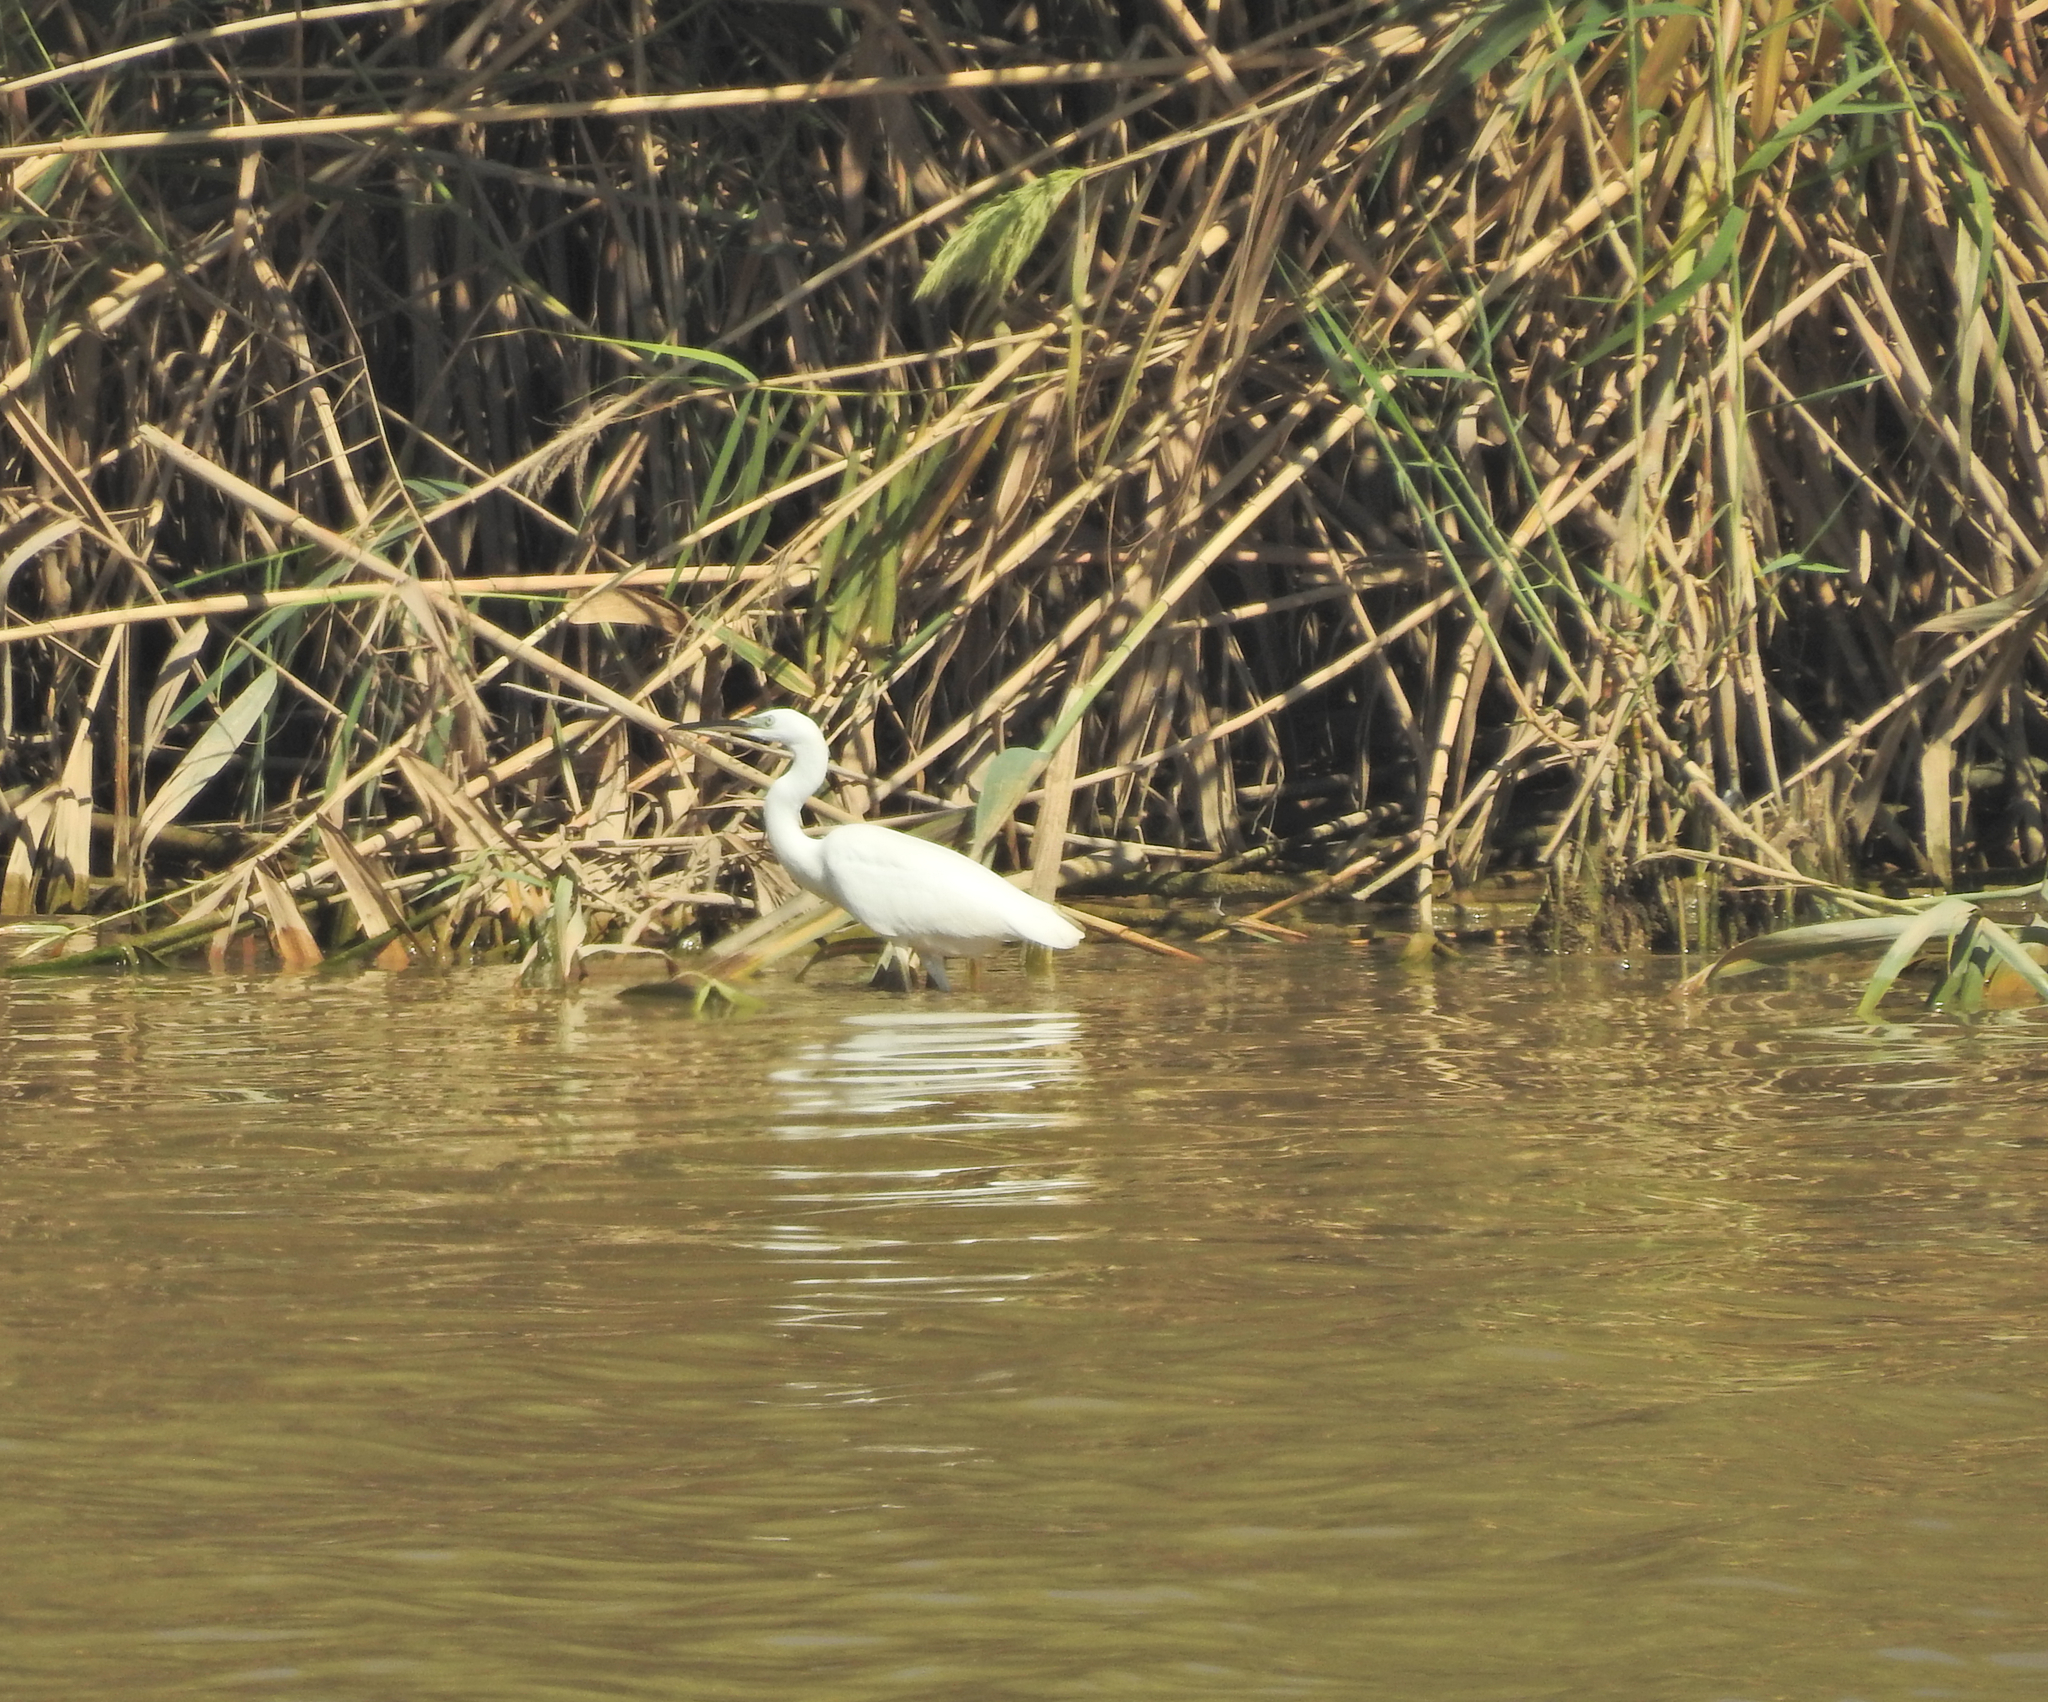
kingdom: Animalia
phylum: Chordata
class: Aves
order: Pelecaniformes
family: Ardeidae
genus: Egretta
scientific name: Egretta garzetta
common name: Little egret
